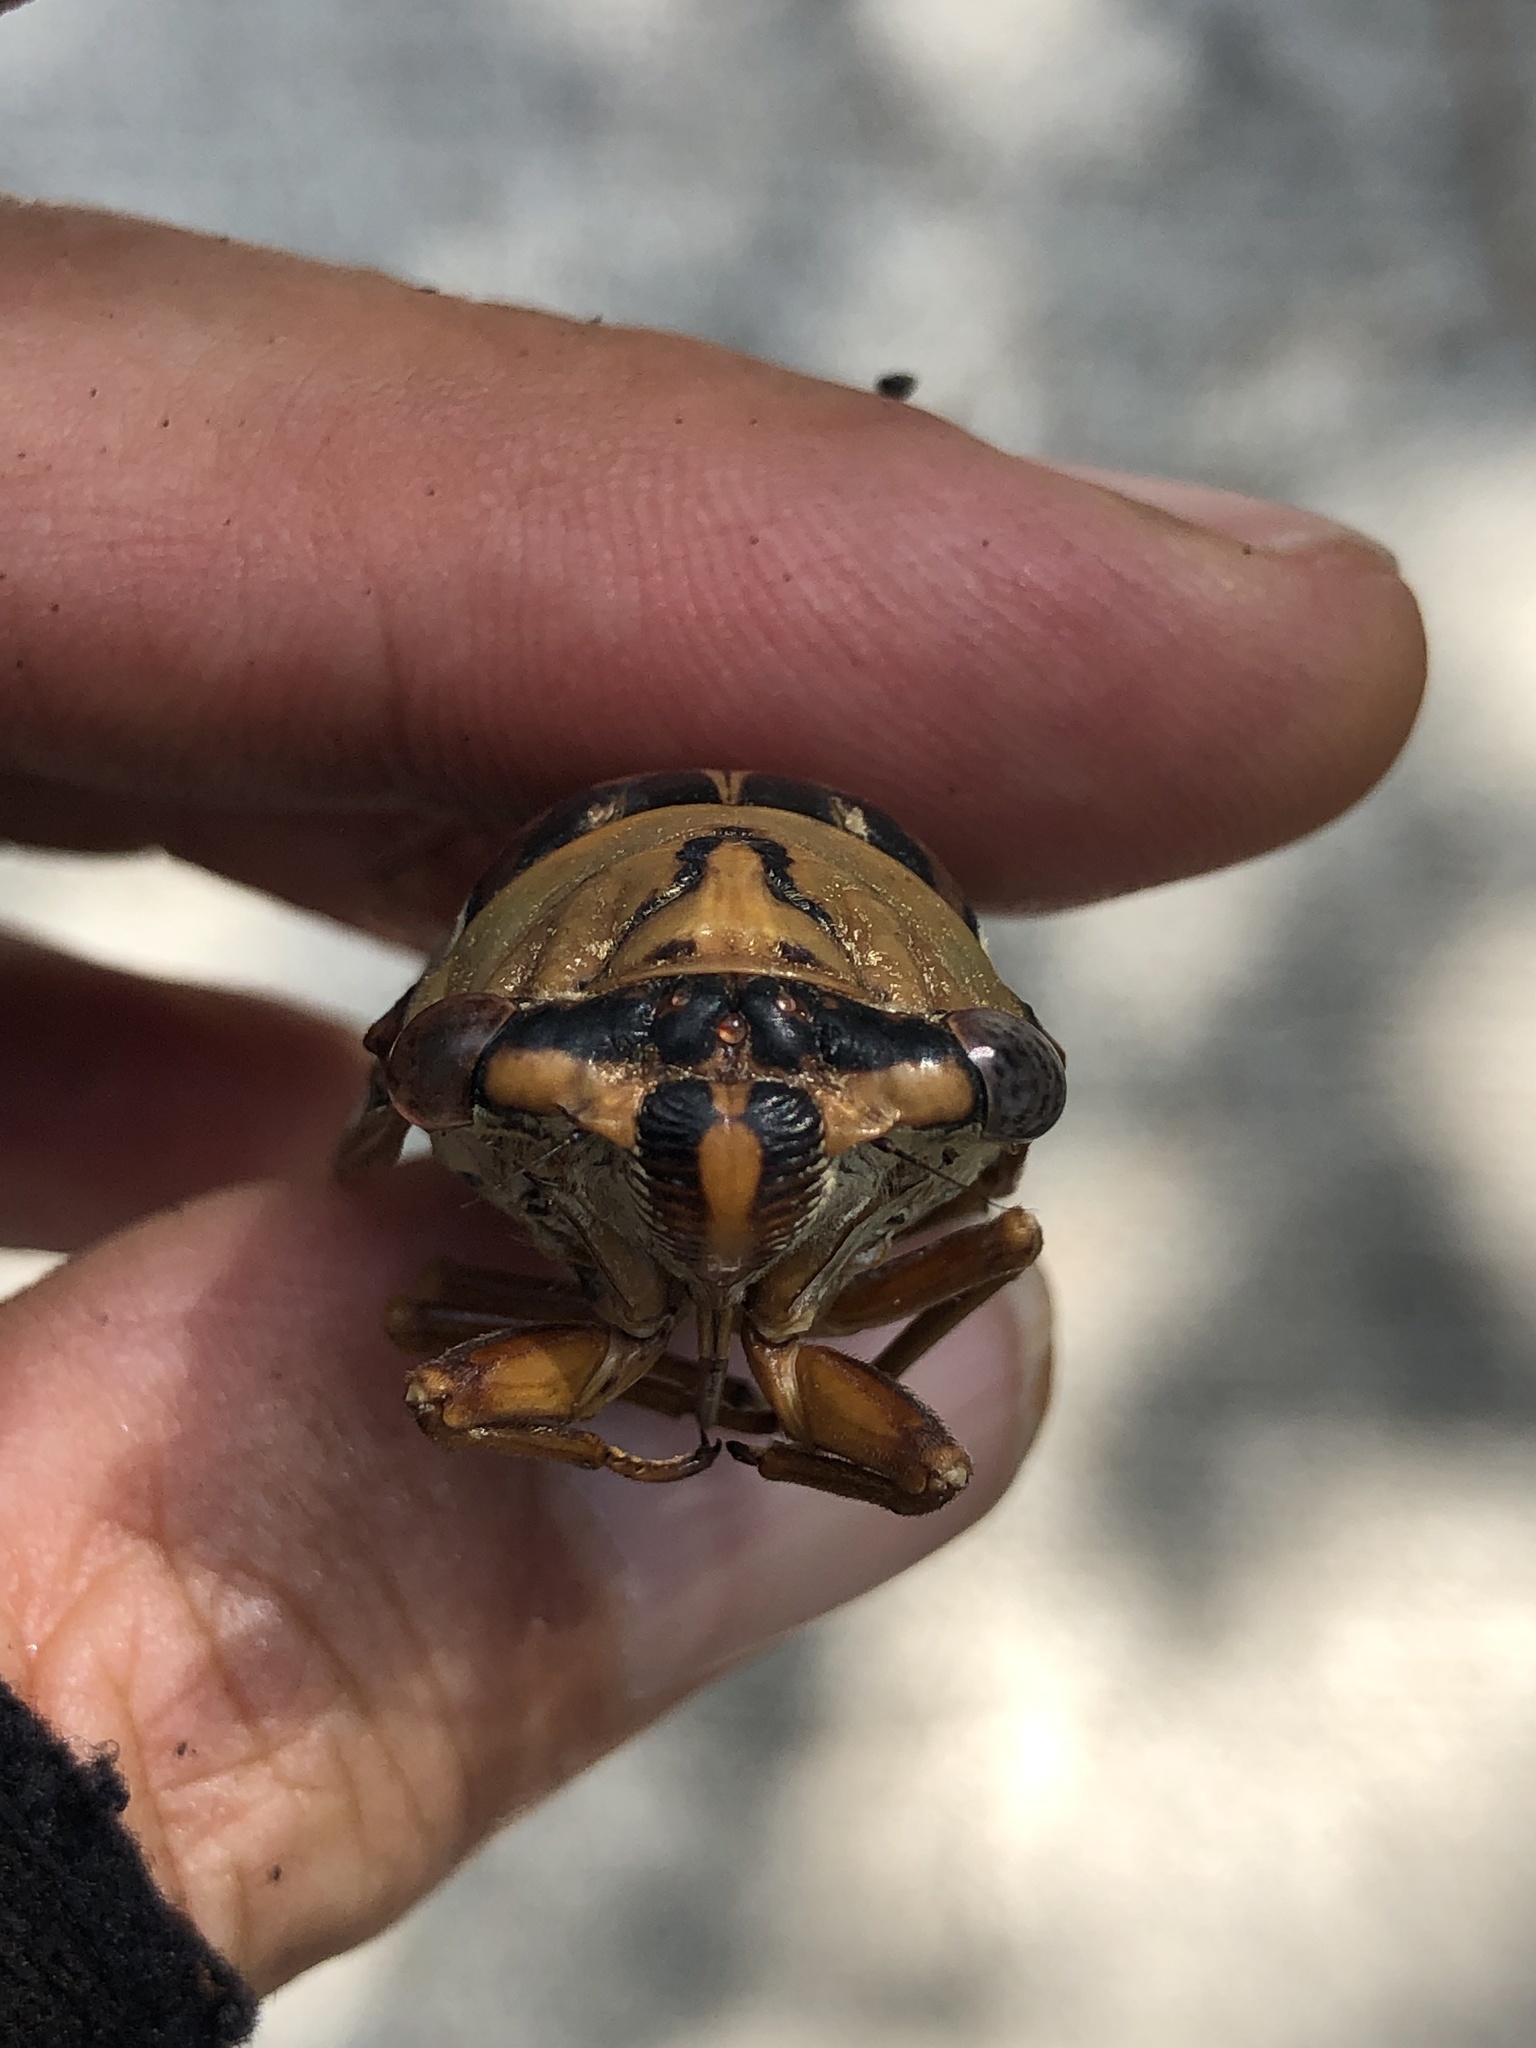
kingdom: Animalia
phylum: Arthropoda
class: Insecta
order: Hemiptera
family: Cicadidae
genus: Megatibicen
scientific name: Megatibicen resh
